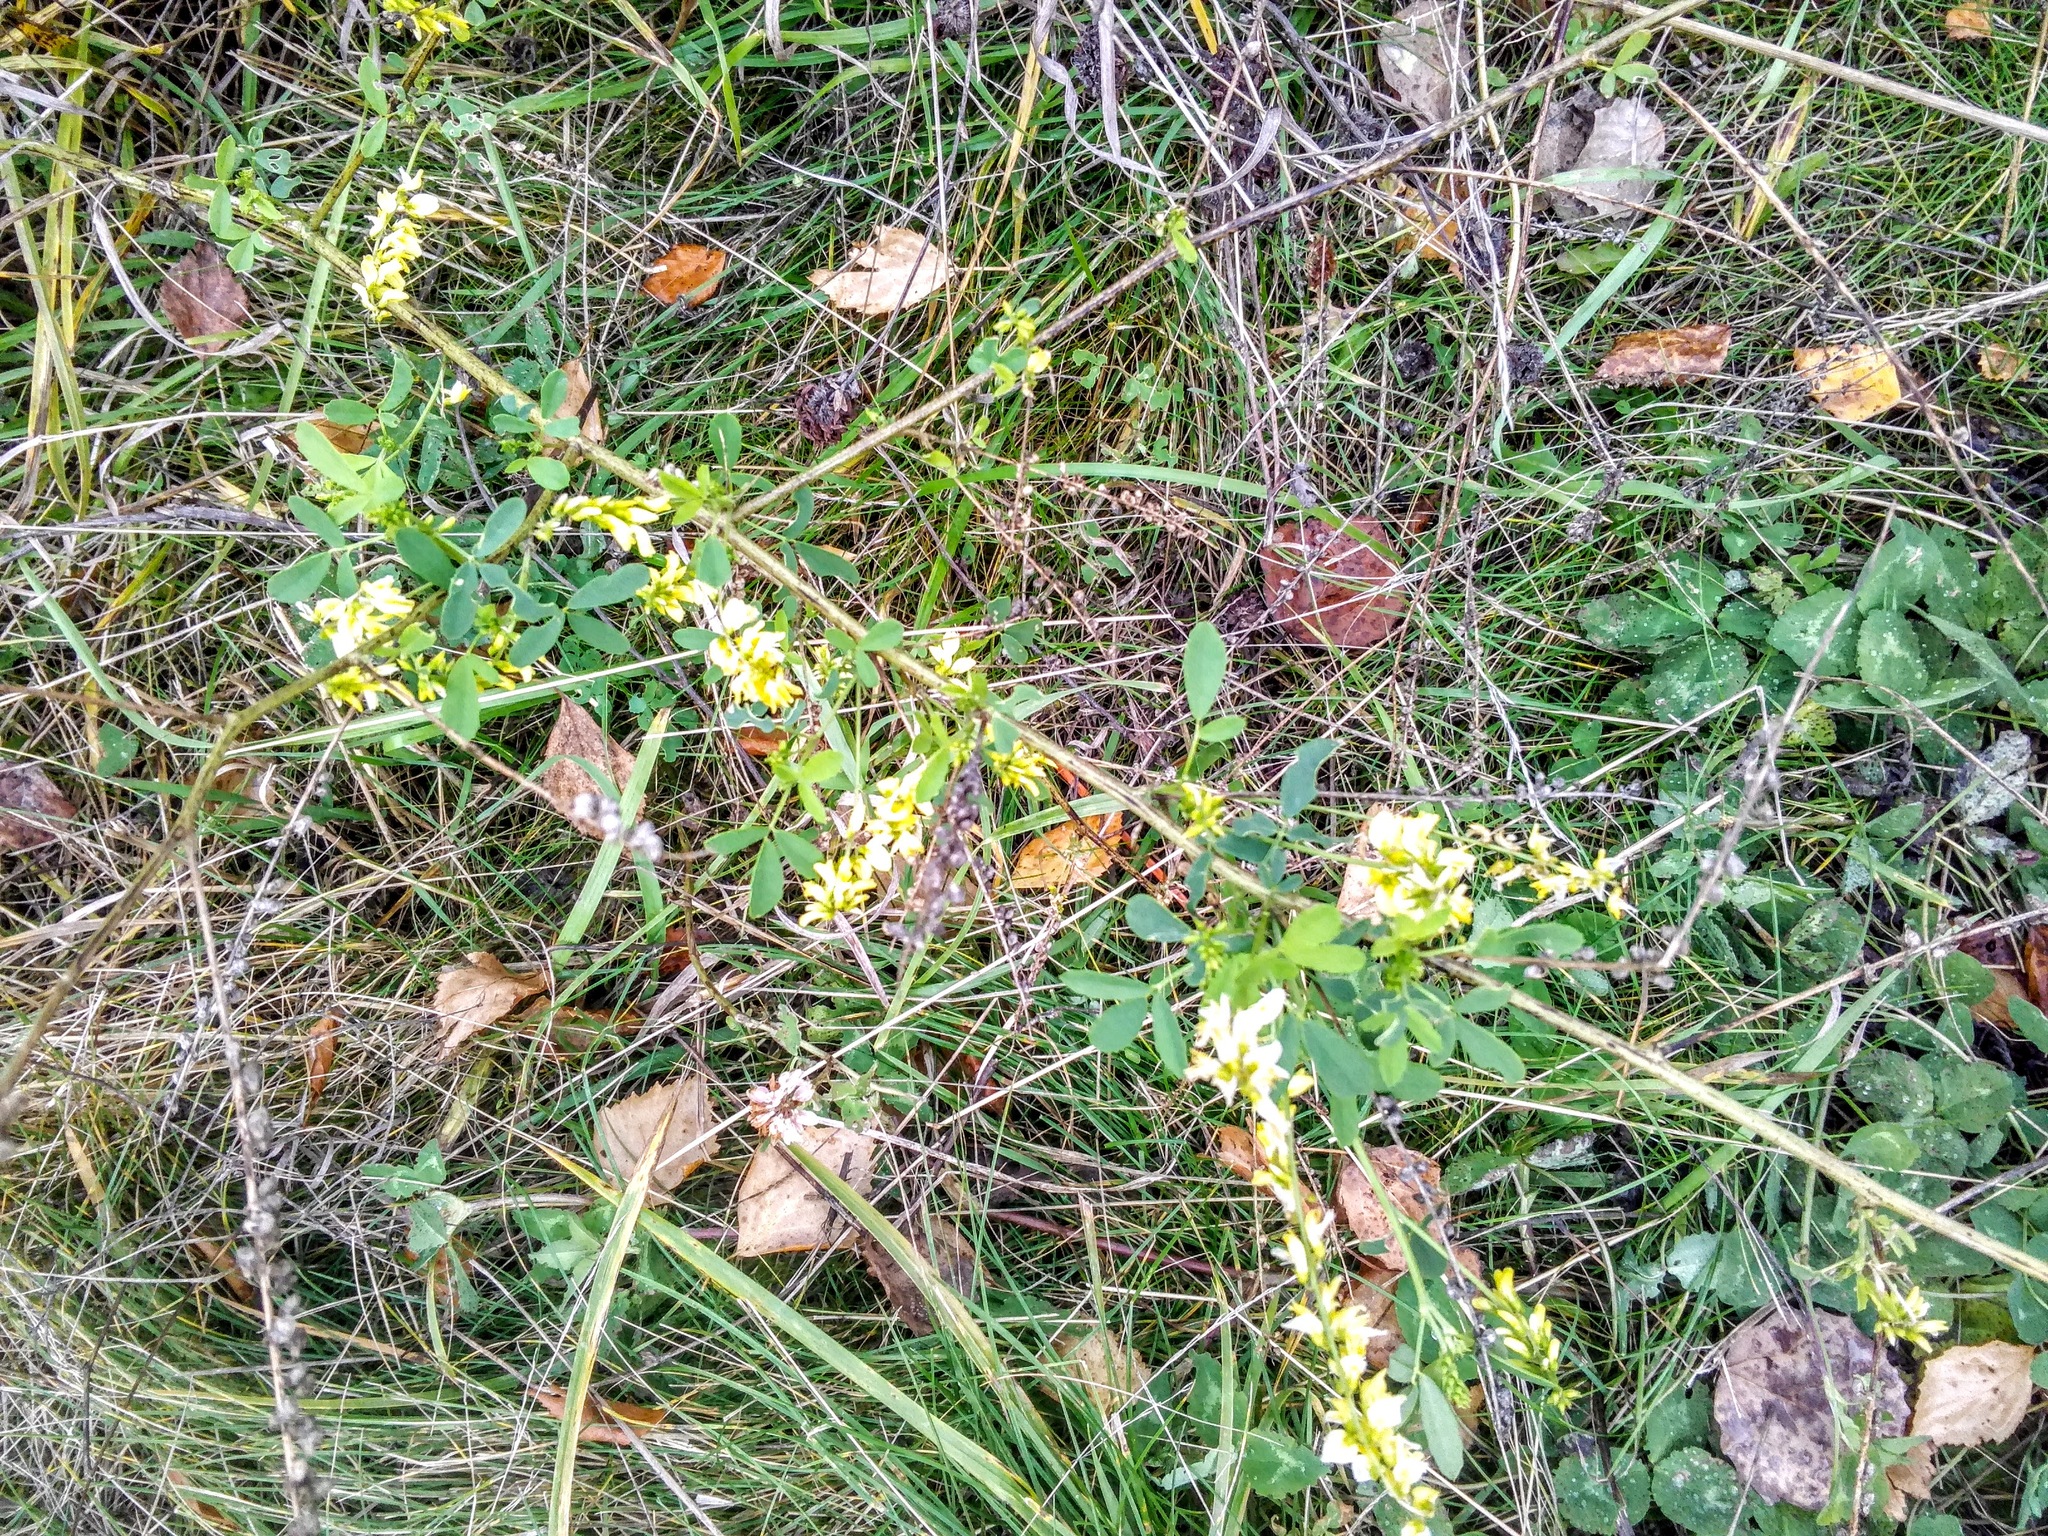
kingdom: Plantae
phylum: Tracheophyta
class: Magnoliopsida
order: Fabales
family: Fabaceae
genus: Melilotus
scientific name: Melilotus officinalis
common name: Sweetclover
